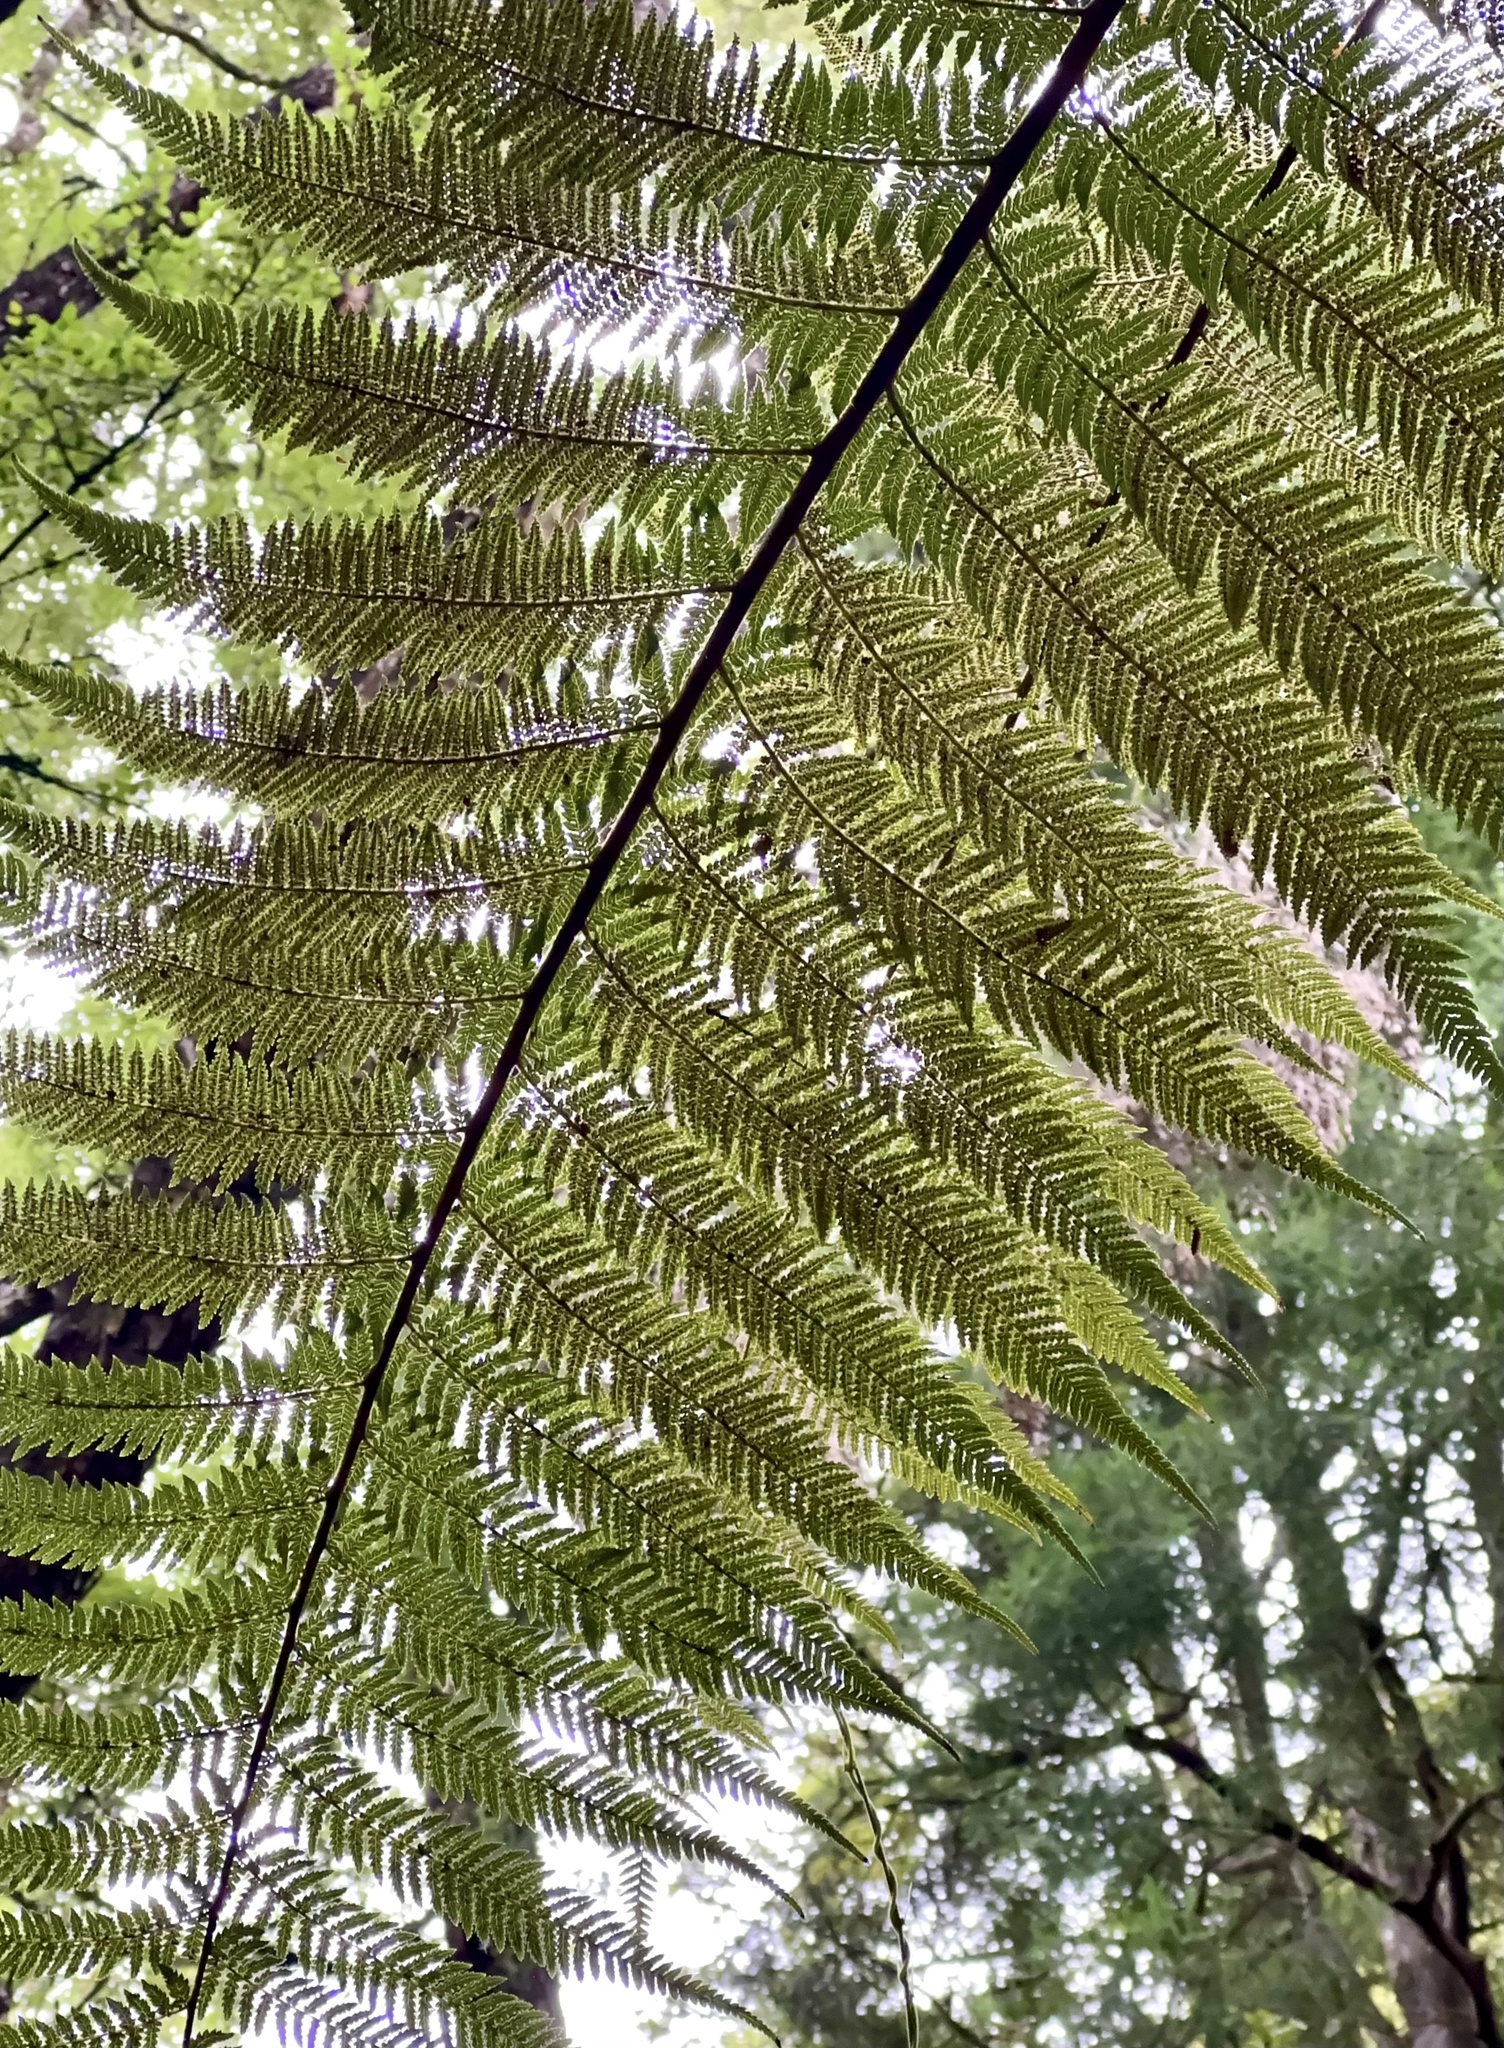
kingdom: Plantae
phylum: Tracheophyta
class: Polypodiopsida
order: Cyatheales
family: Dicksoniaceae
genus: Dicksonia
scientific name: Dicksonia fibrosa
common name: Golden tree fern
